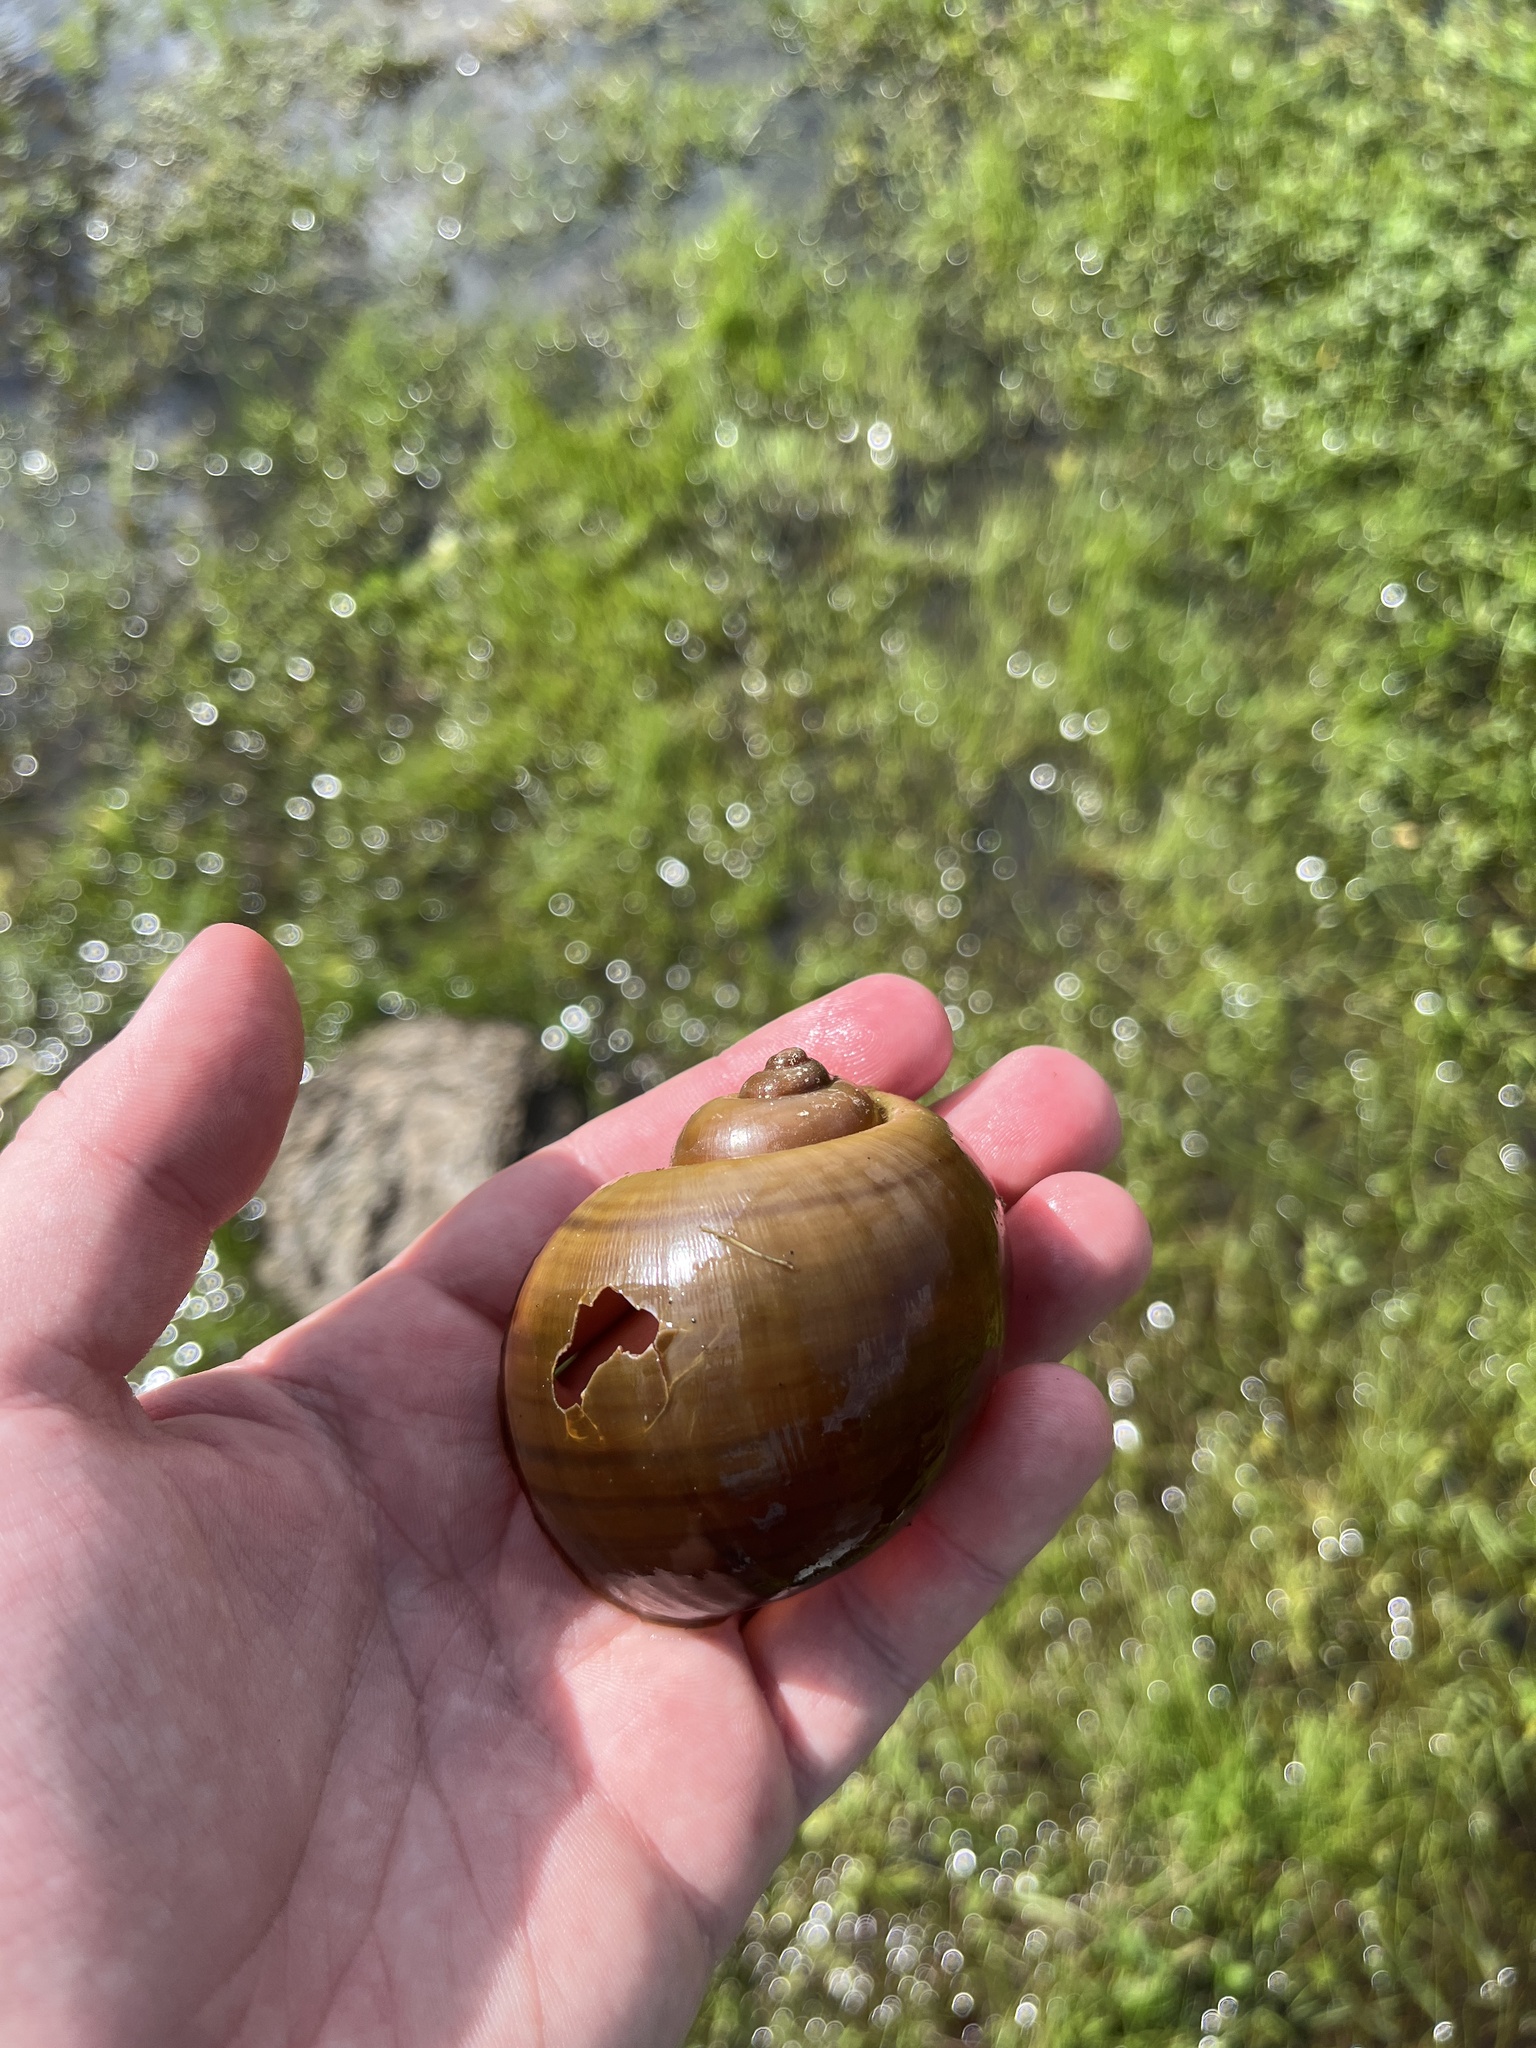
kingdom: Animalia
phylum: Mollusca
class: Gastropoda
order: Architaenioglossa
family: Ampullariidae
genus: Pomacea
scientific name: Pomacea maculata
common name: Giant applesnail
